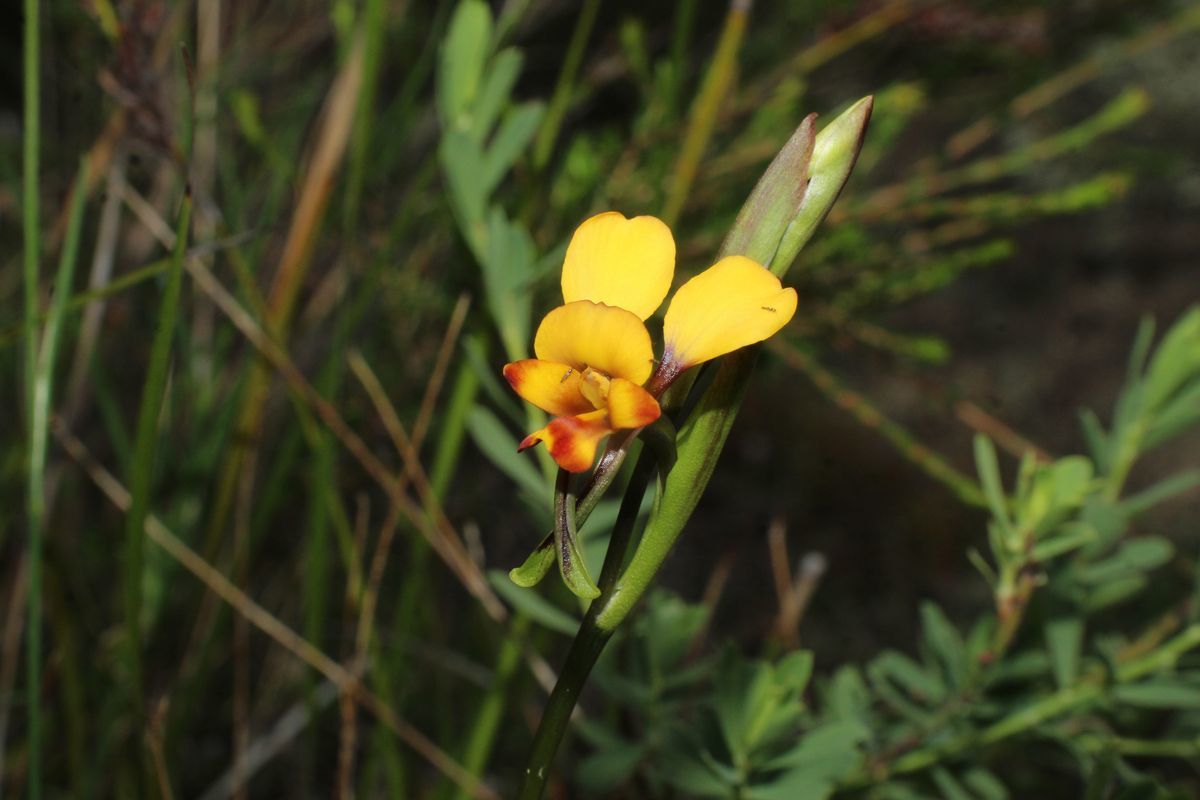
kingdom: Plantae
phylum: Tracheophyta
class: Liliopsida
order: Asparagales
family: Orchidaceae
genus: Diuris
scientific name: Diuris brockmanii
